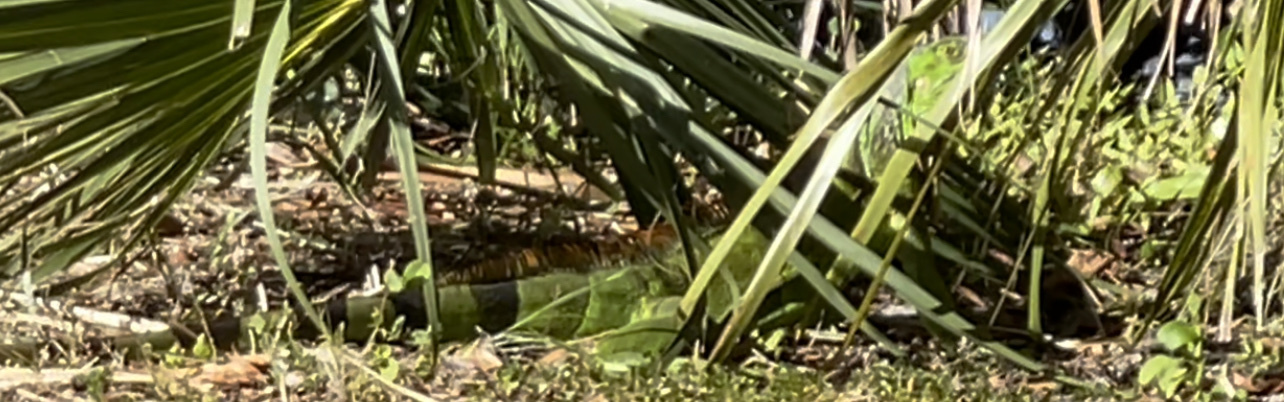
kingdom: Animalia
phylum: Chordata
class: Squamata
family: Iguanidae
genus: Iguana
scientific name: Iguana iguana
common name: Green iguana
